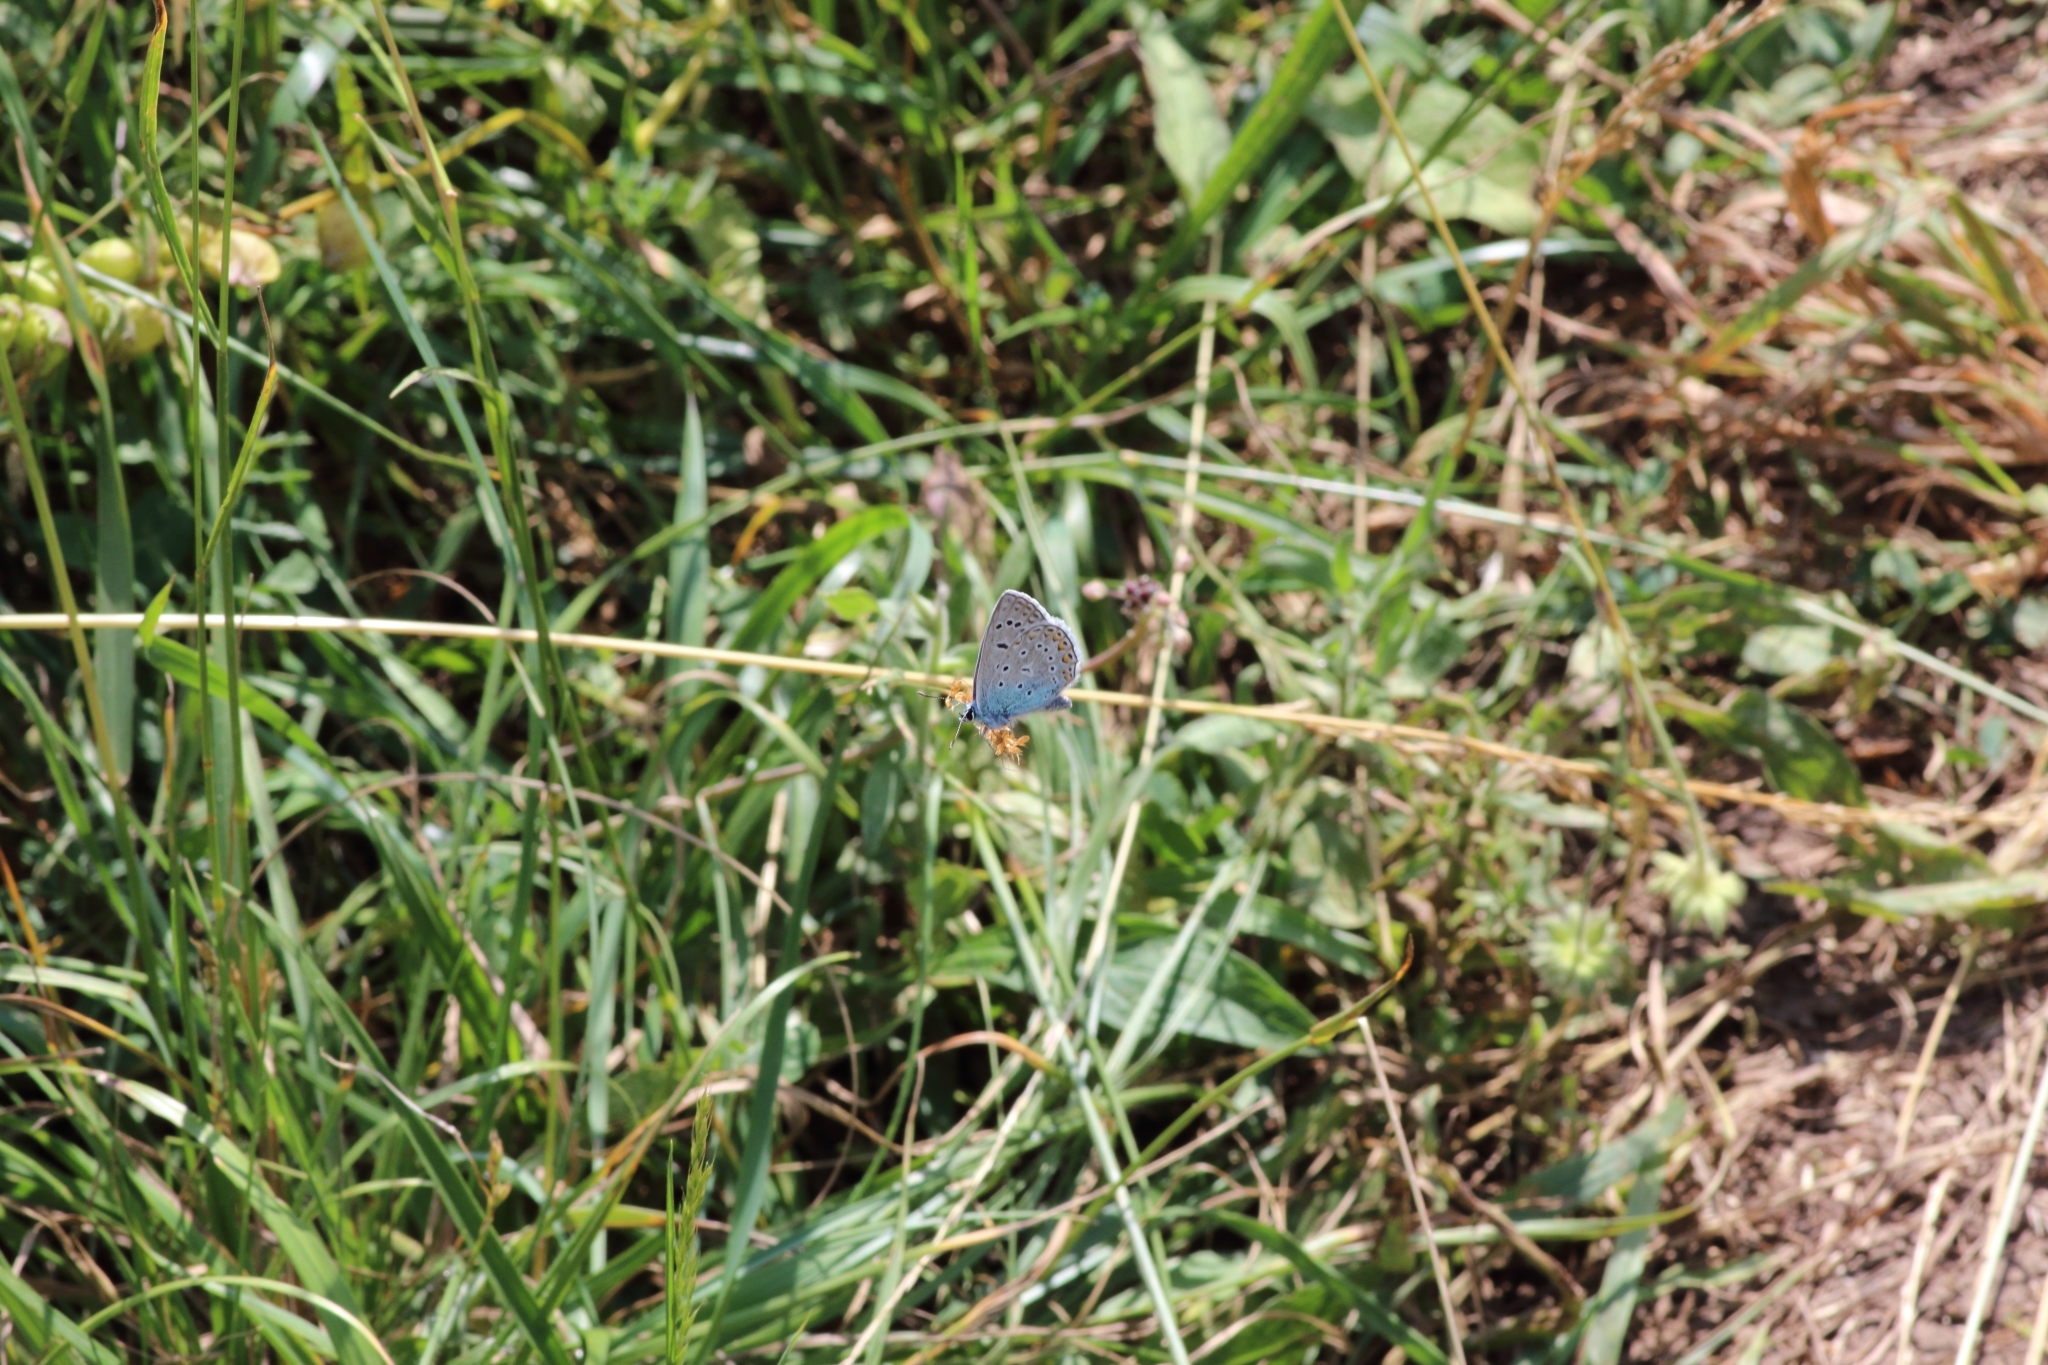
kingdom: Animalia
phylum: Arthropoda
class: Insecta
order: Lepidoptera
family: Lycaenidae
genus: Polyommatus
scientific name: Polyommatus icarus
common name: Common blue
